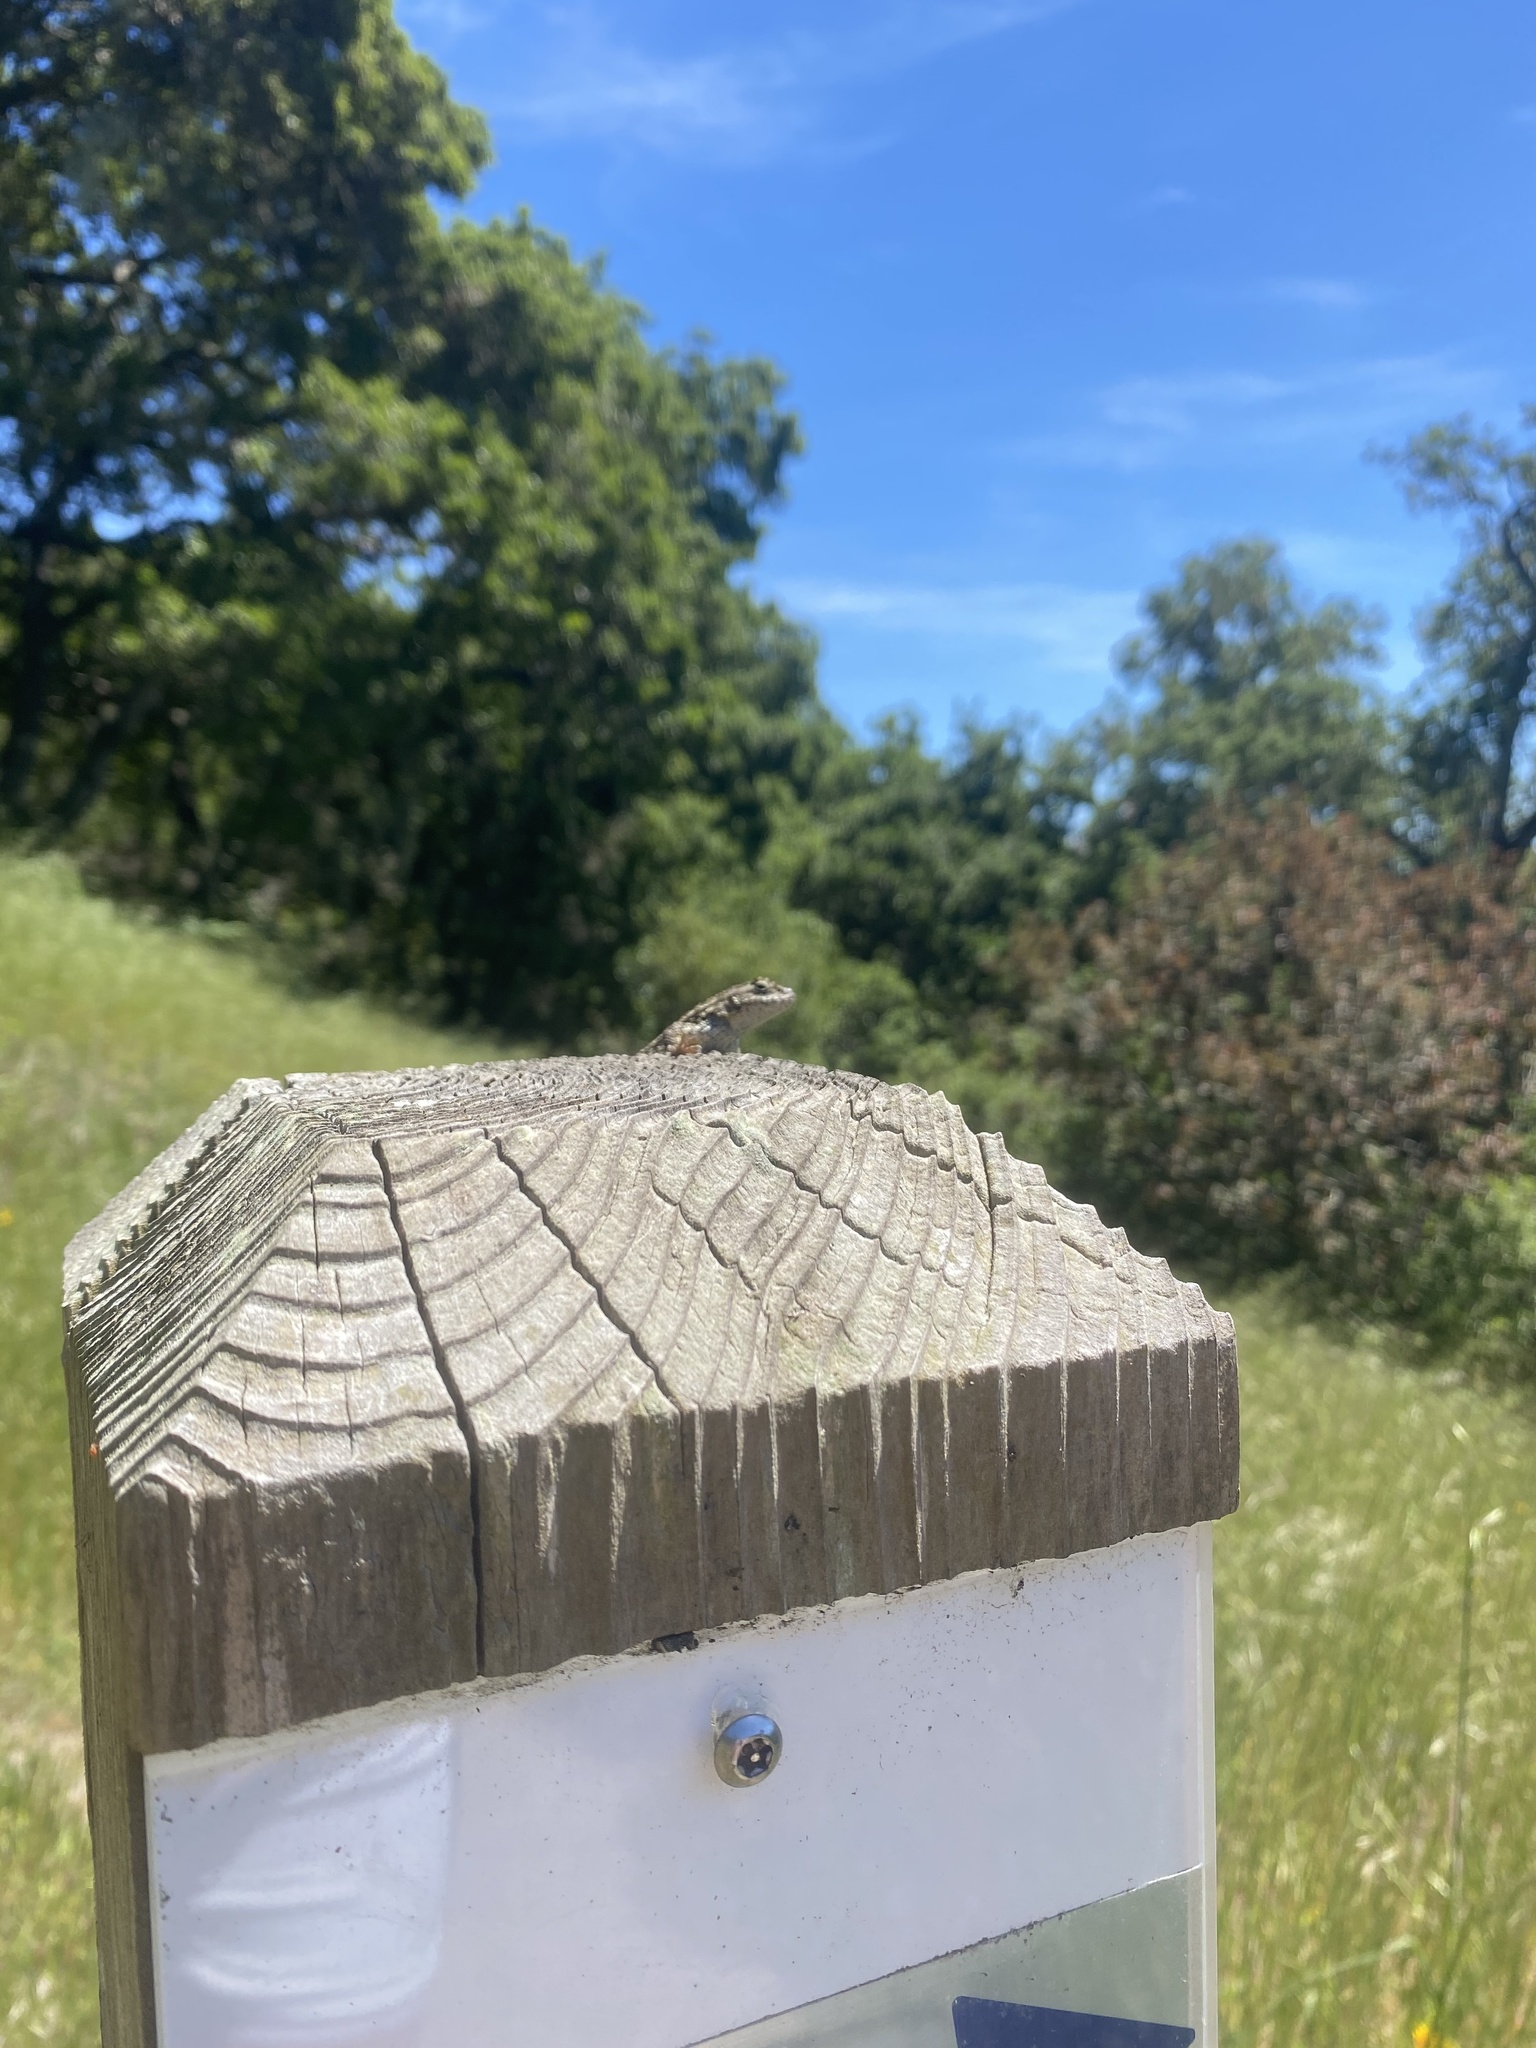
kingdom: Animalia
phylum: Chordata
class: Squamata
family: Phrynosomatidae
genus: Sceloporus
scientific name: Sceloporus occidentalis
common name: Western fence lizard
